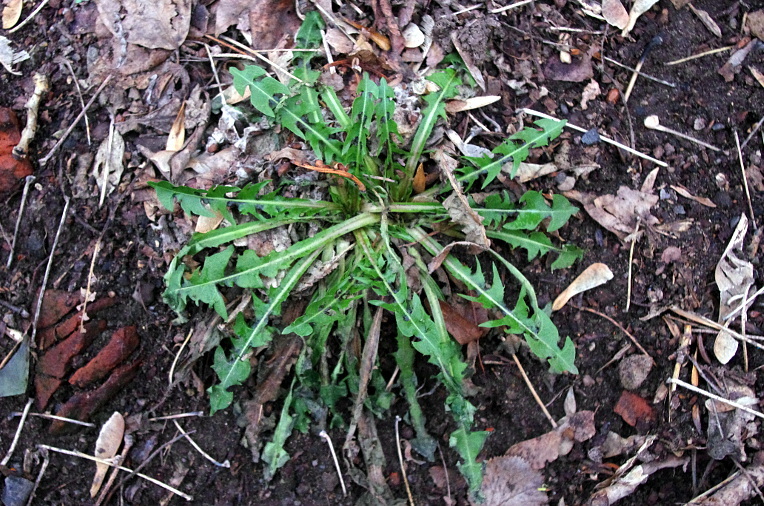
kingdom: Plantae
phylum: Tracheophyta
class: Magnoliopsida
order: Asterales
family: Asteraceae
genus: Taraxacum
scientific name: Taraxacum officinale
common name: Common dandelion
